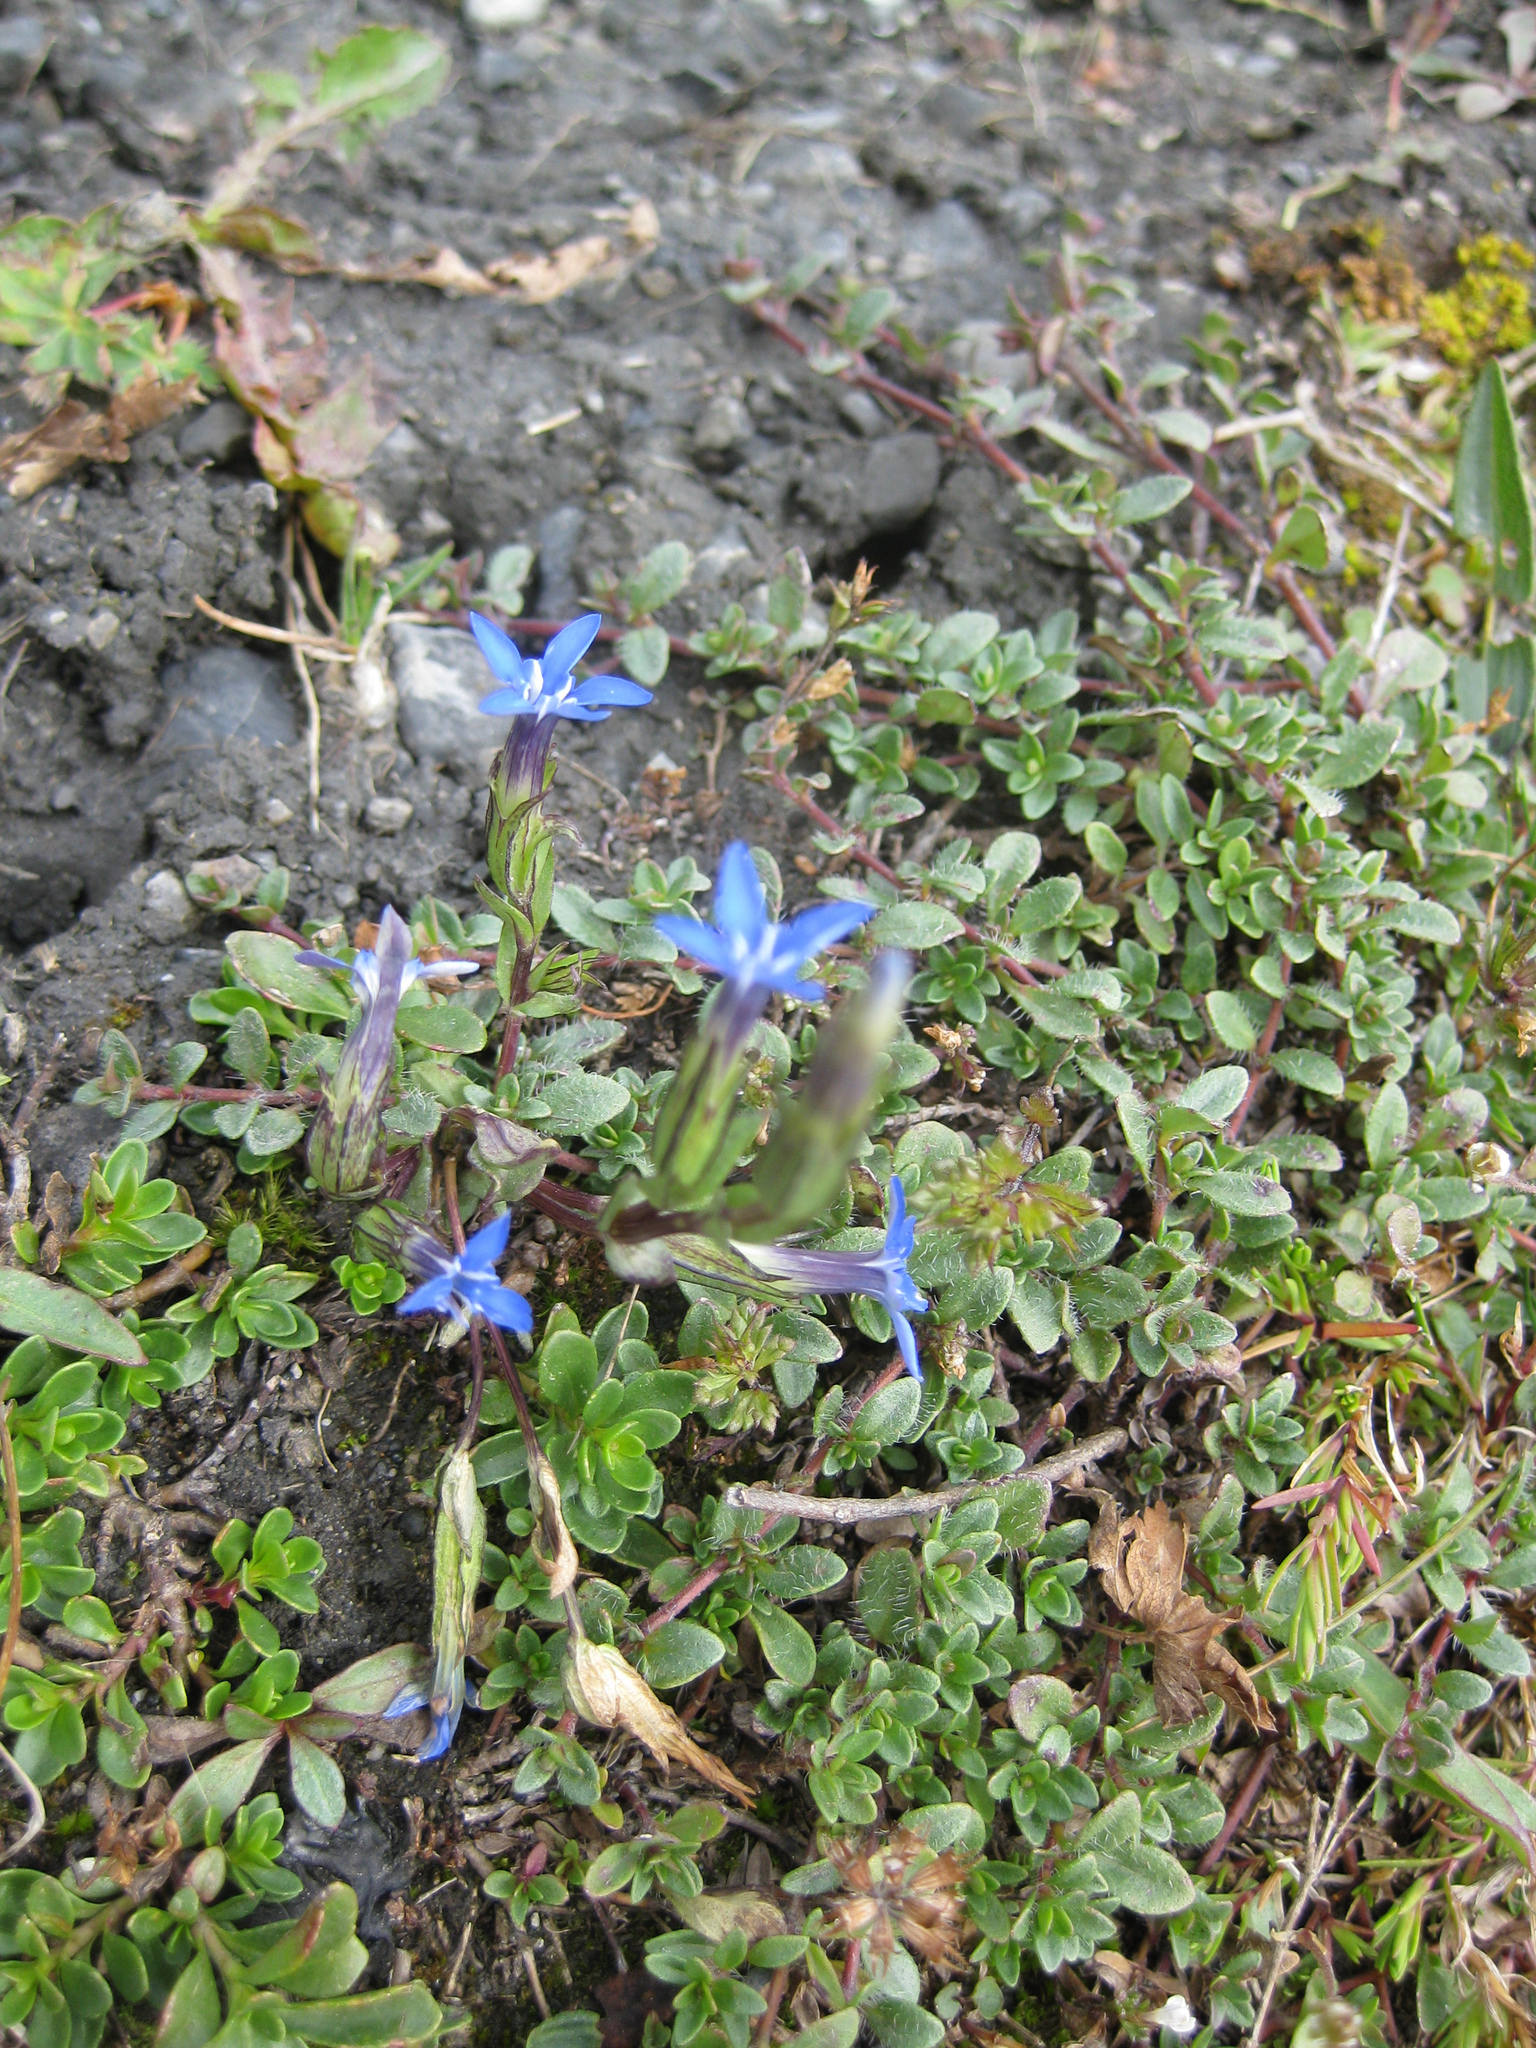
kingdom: Plantae
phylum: Tracheophyta
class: Magnoliopsida
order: Gentianales
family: Gentianaceae
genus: Gentiana
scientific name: Gentiana nivalis
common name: Alpine gentian
